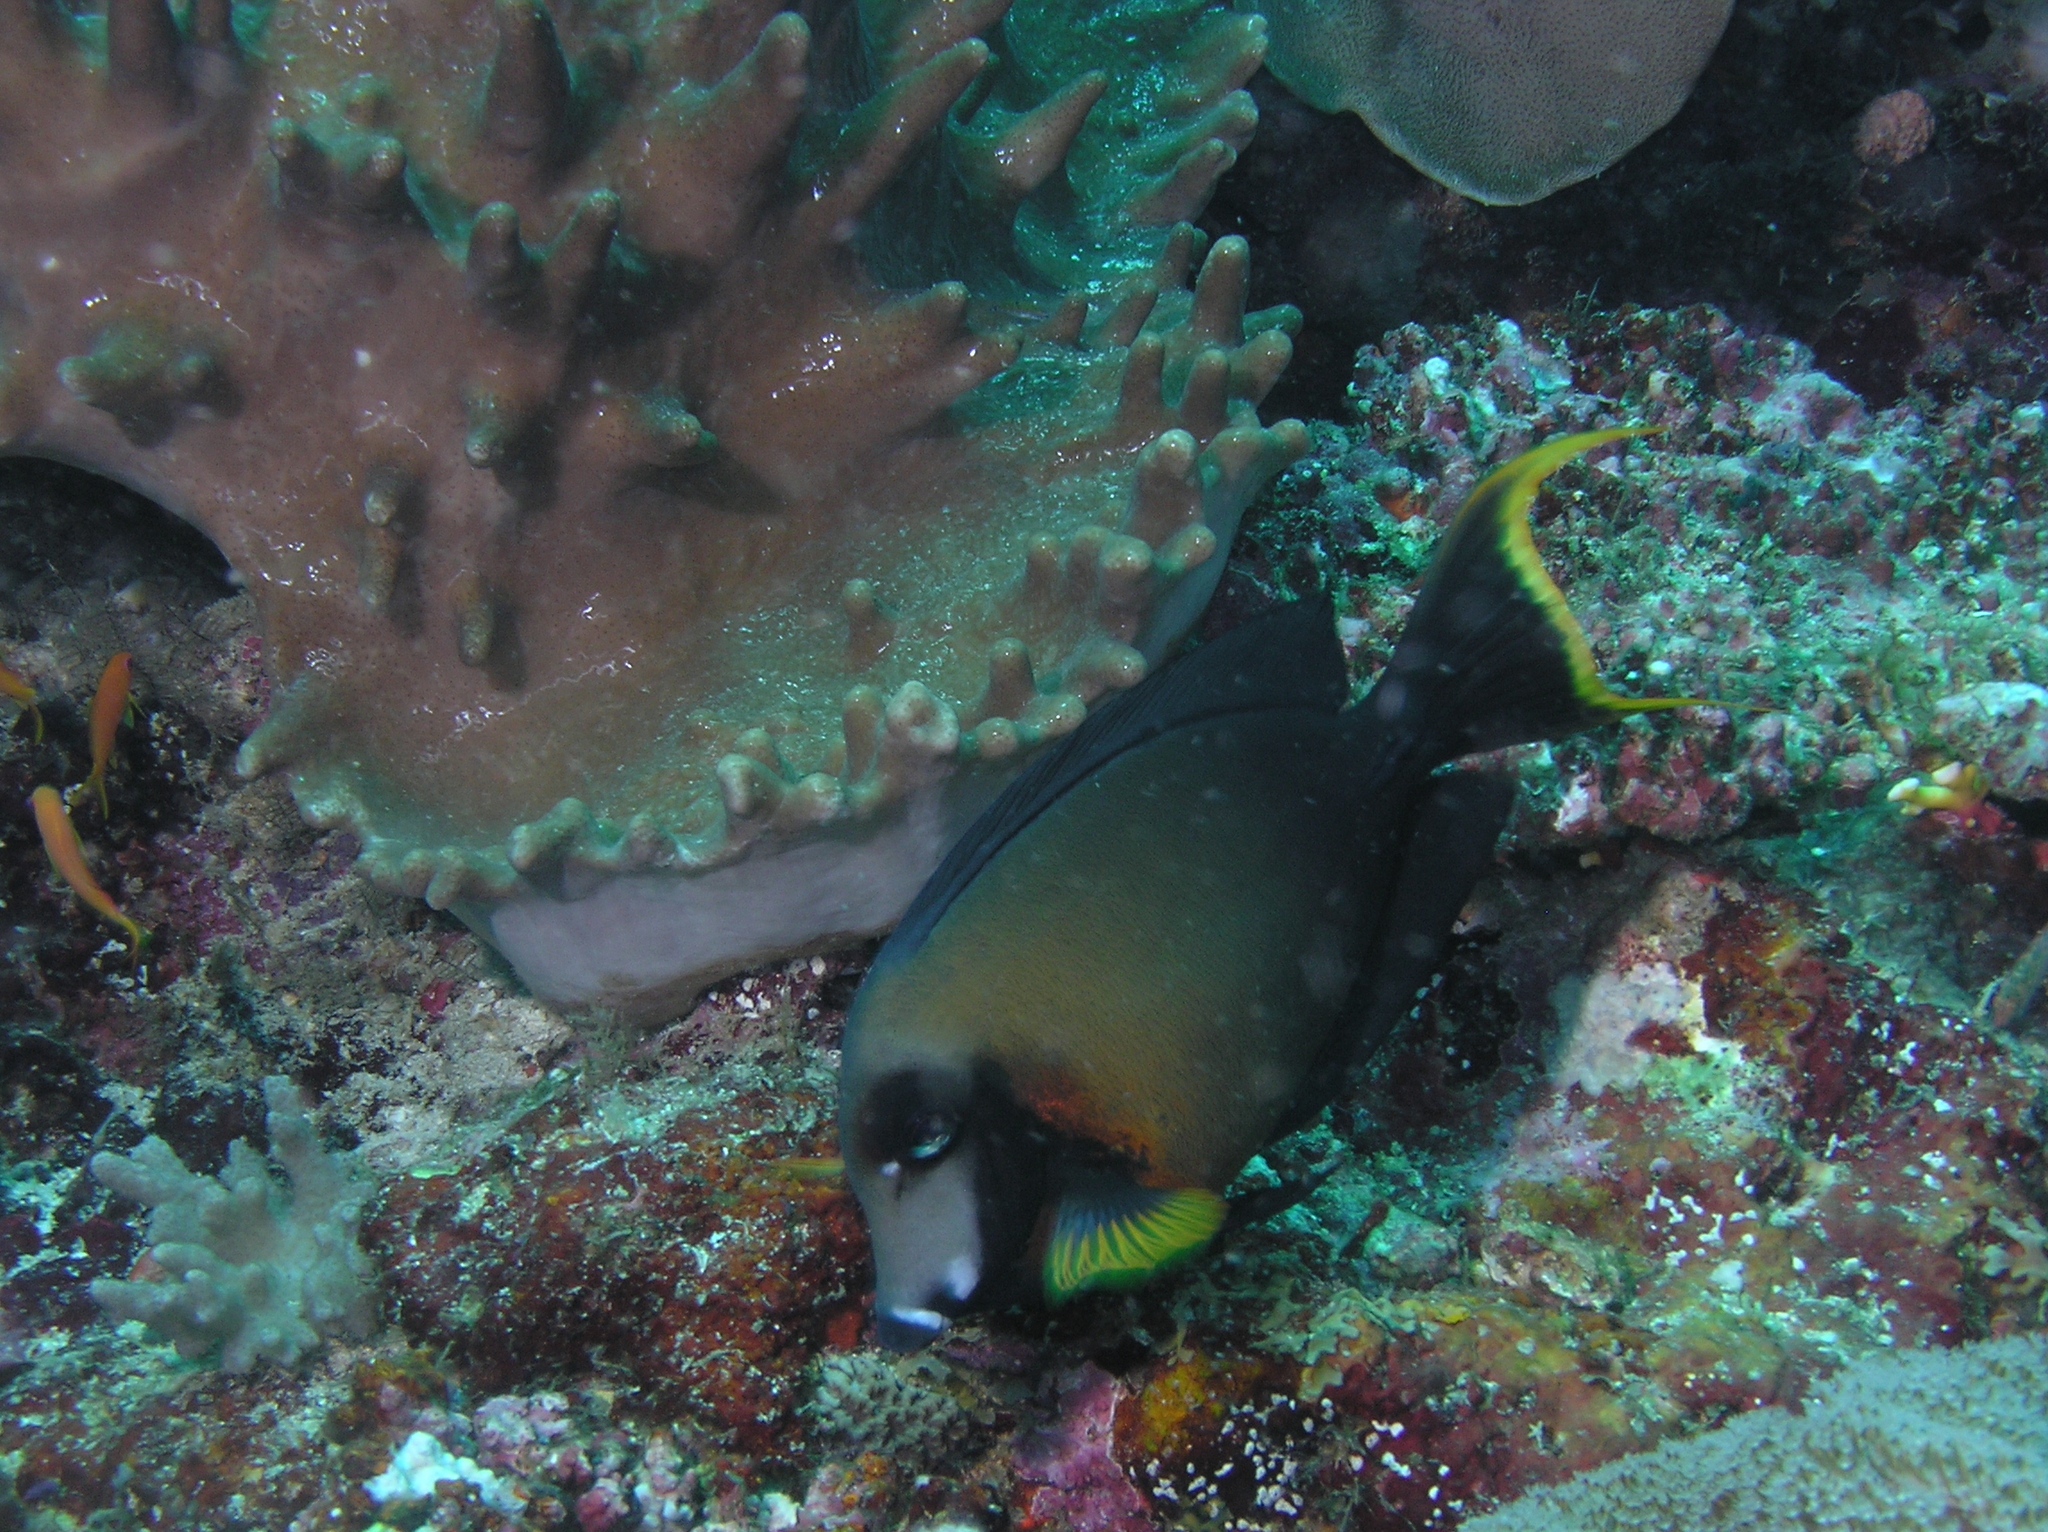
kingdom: Animalia
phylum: Chordata
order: Perciformes
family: Acanthuridae
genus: Acanthurus
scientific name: Acanthurus pyroferus
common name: Chocolate surgeonfish
